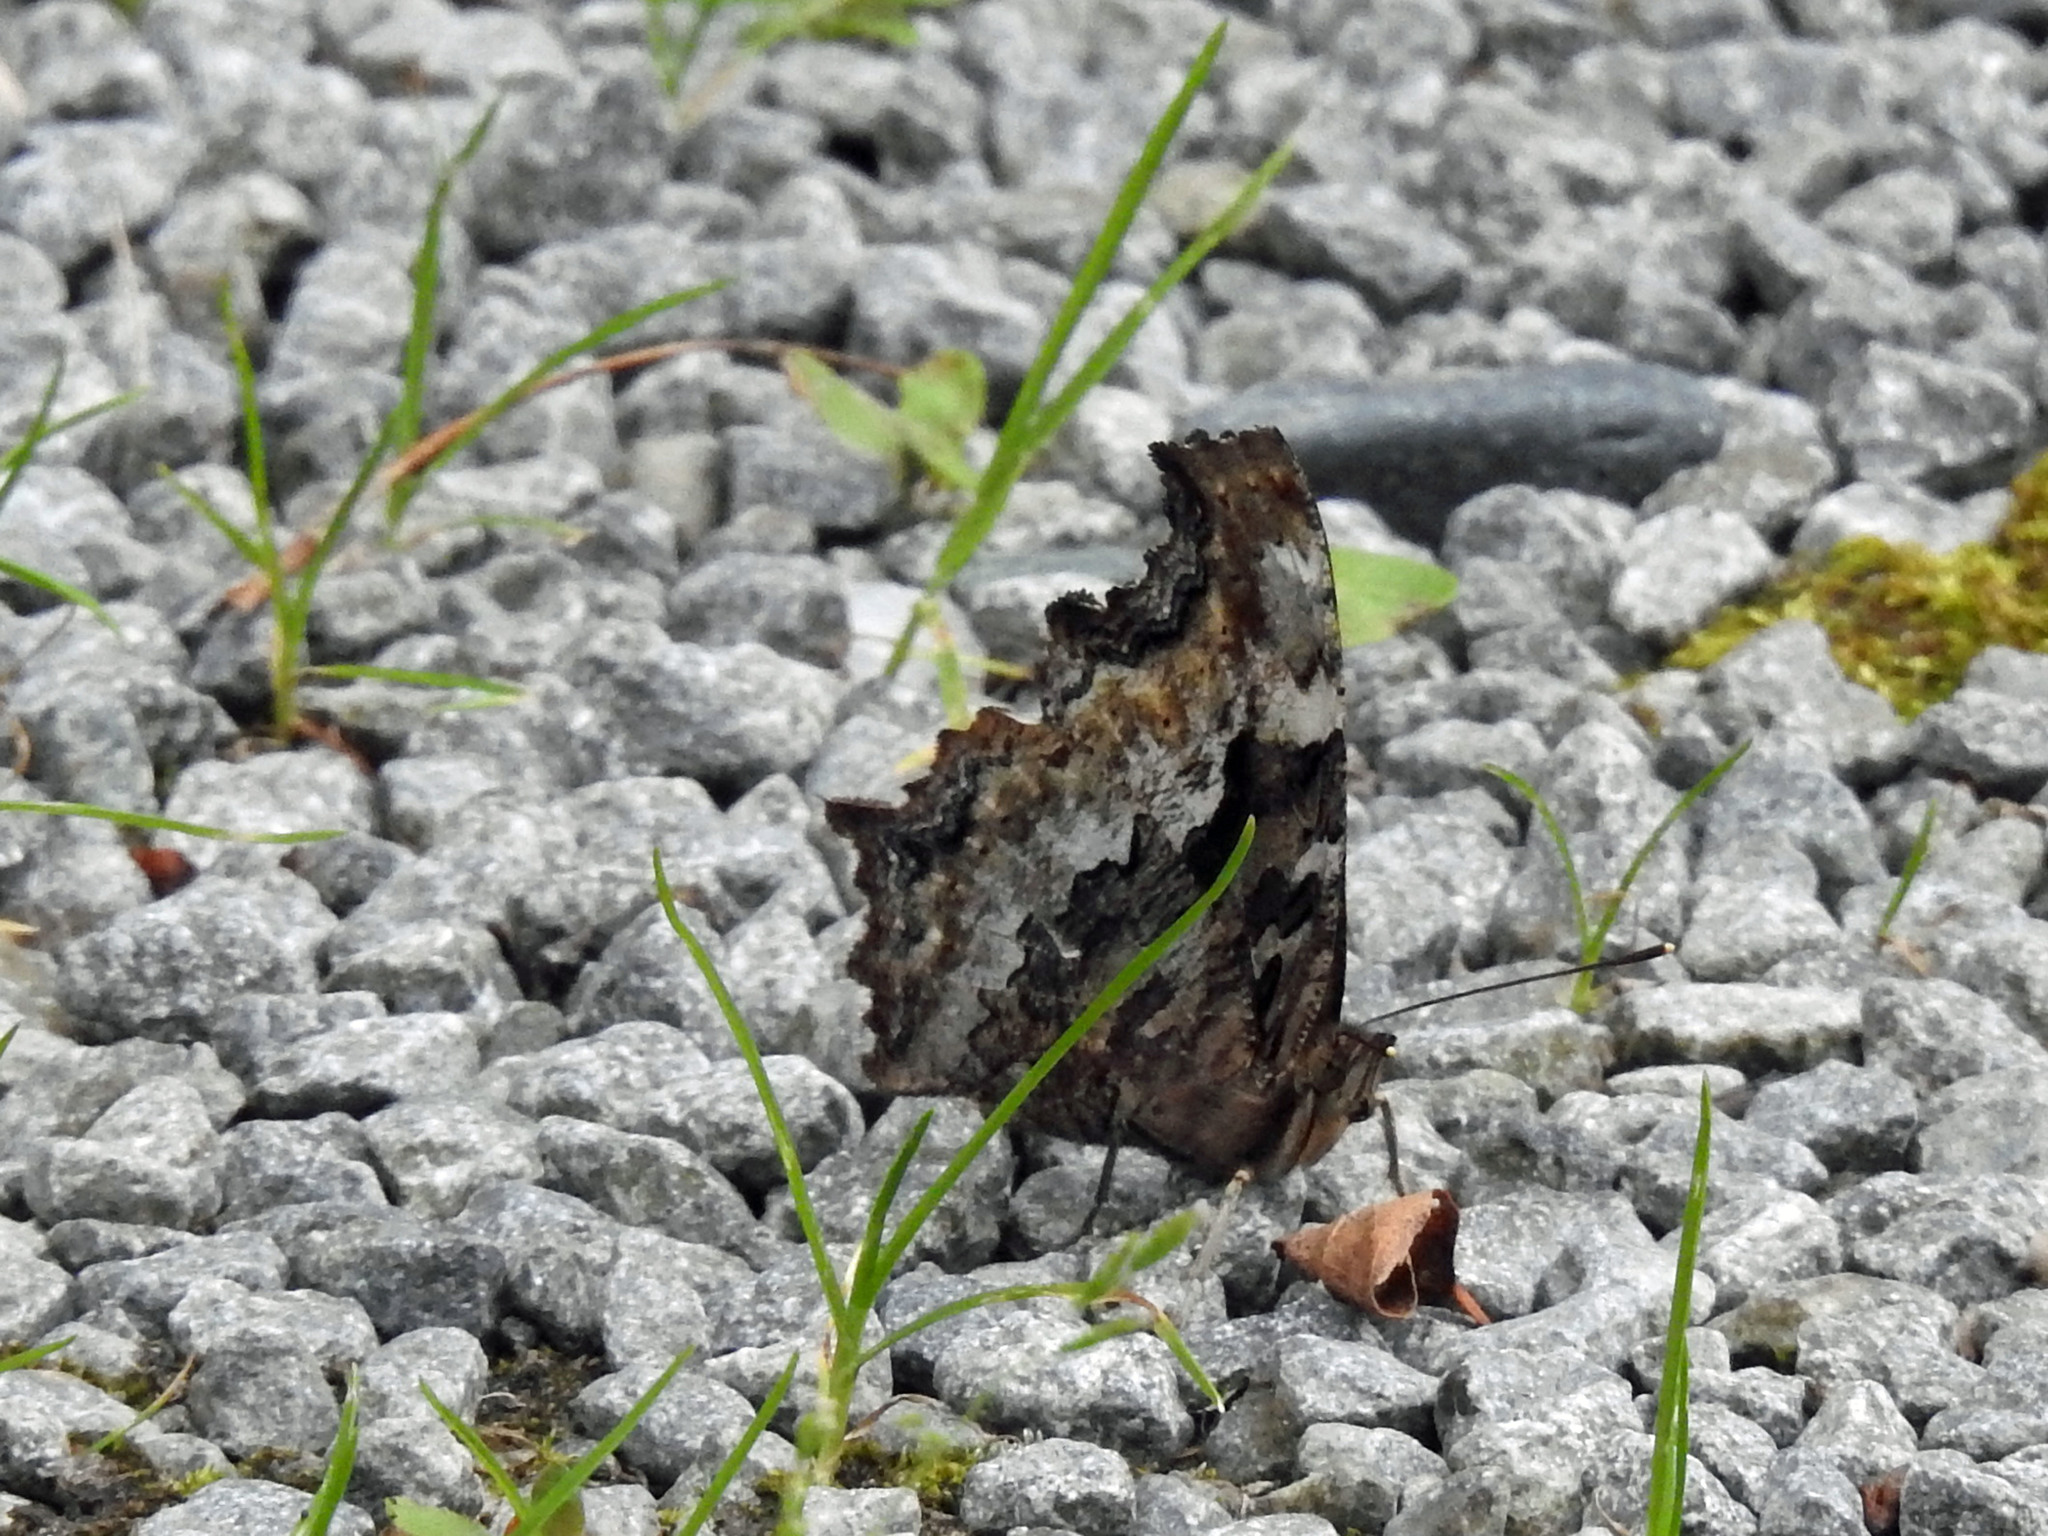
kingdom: Animalia
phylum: Arthropoda
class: Insecta
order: Lepidoptera
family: Nymphalidae
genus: Polygonia
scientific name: Polygonia vaualbum
